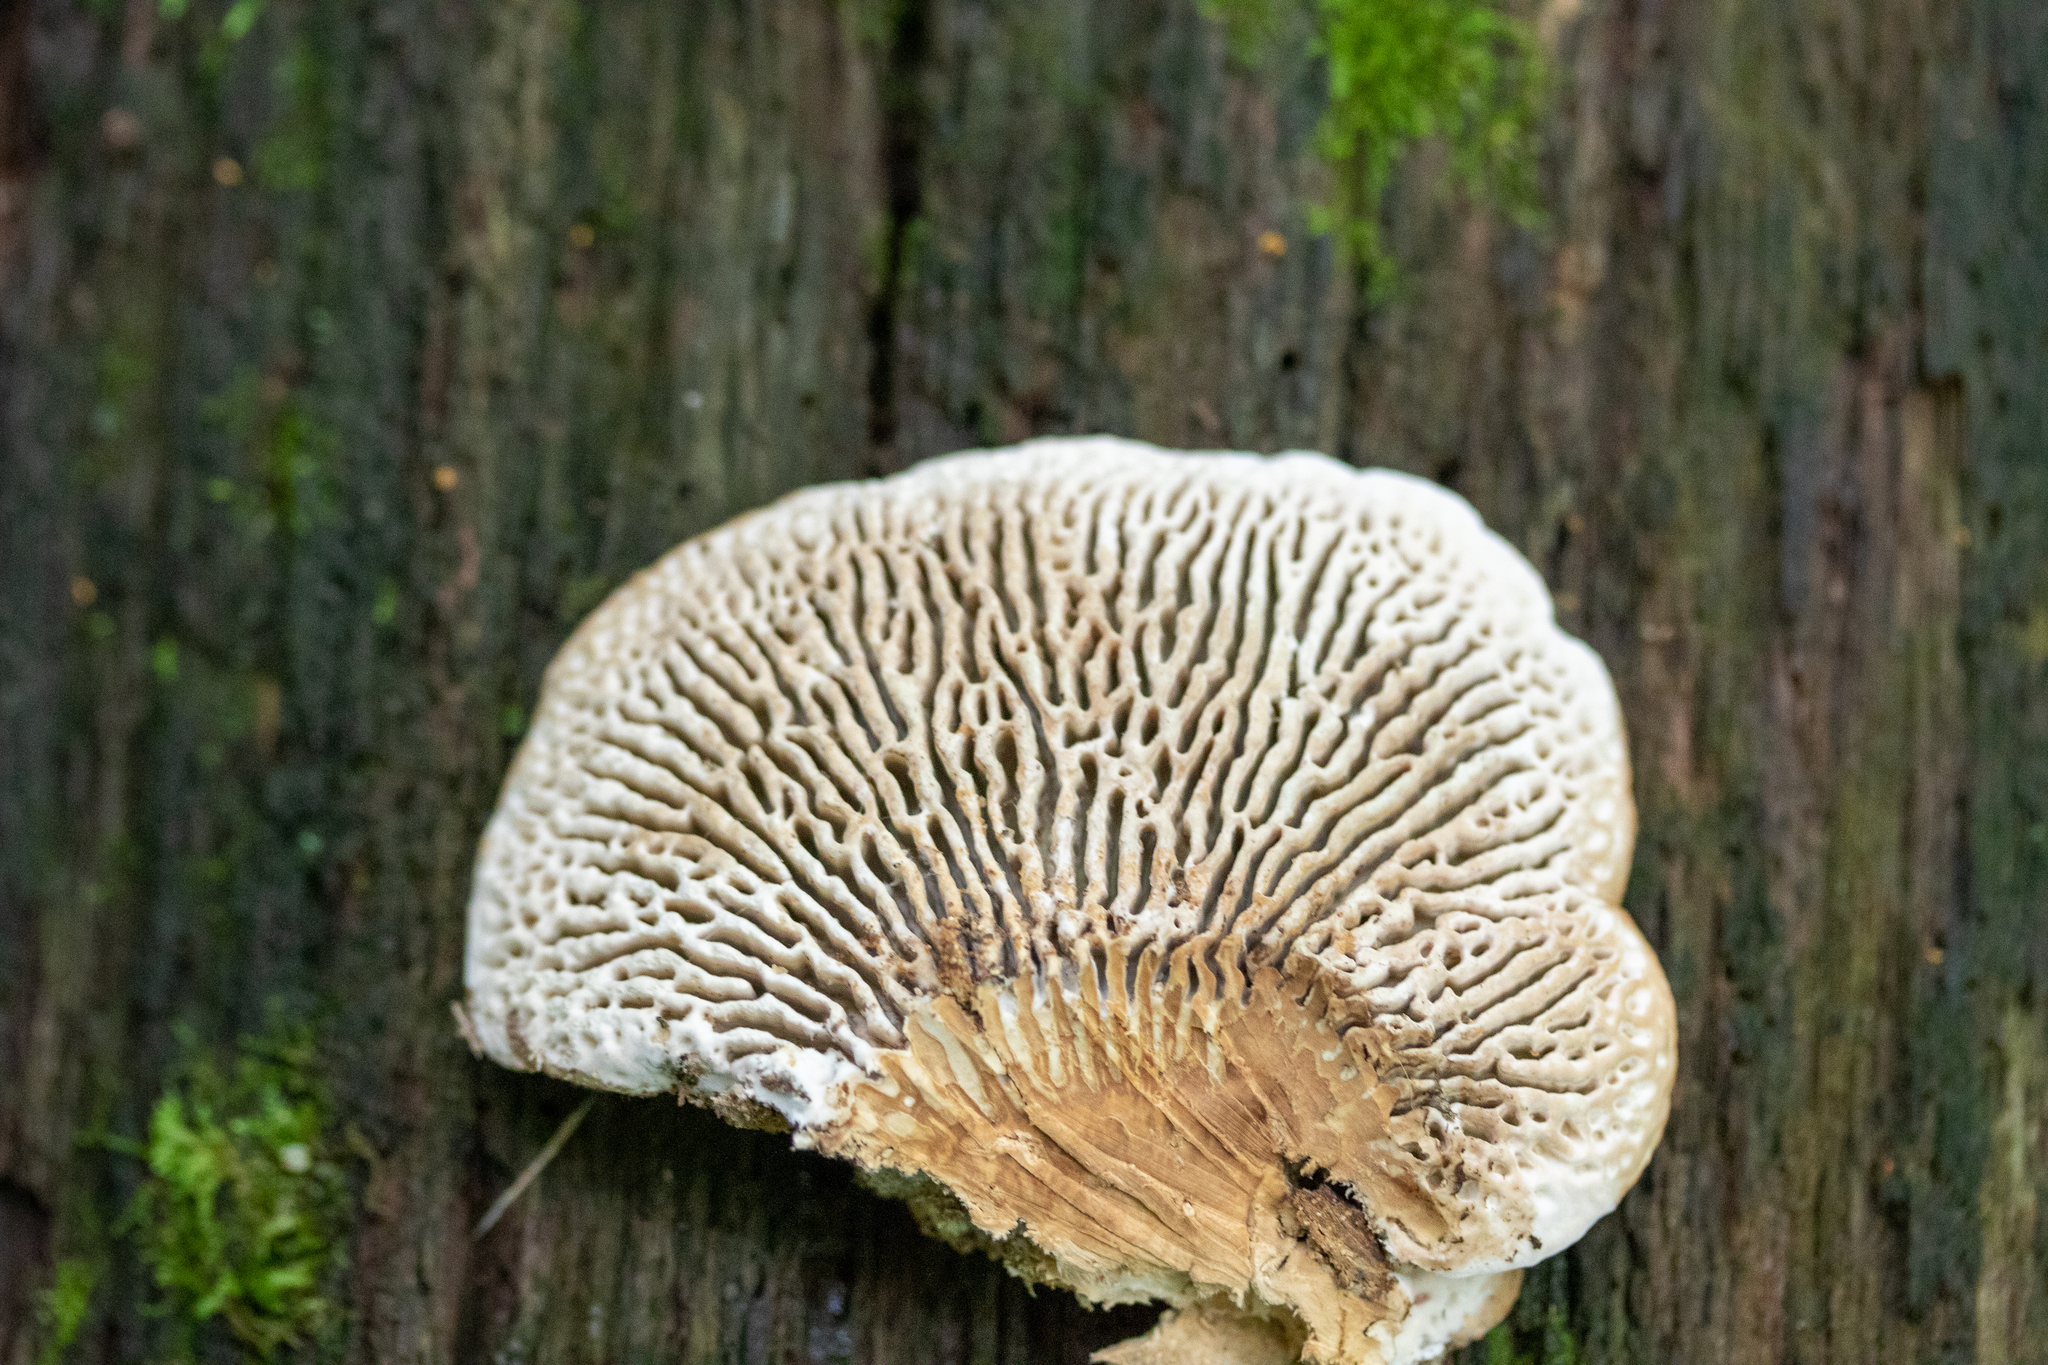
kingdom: Fungi
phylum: Basidiomycota
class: Agaricomycetes
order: Polyporales
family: Fomitopsidaceae
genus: Fomitopsis
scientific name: Fomitopsis
